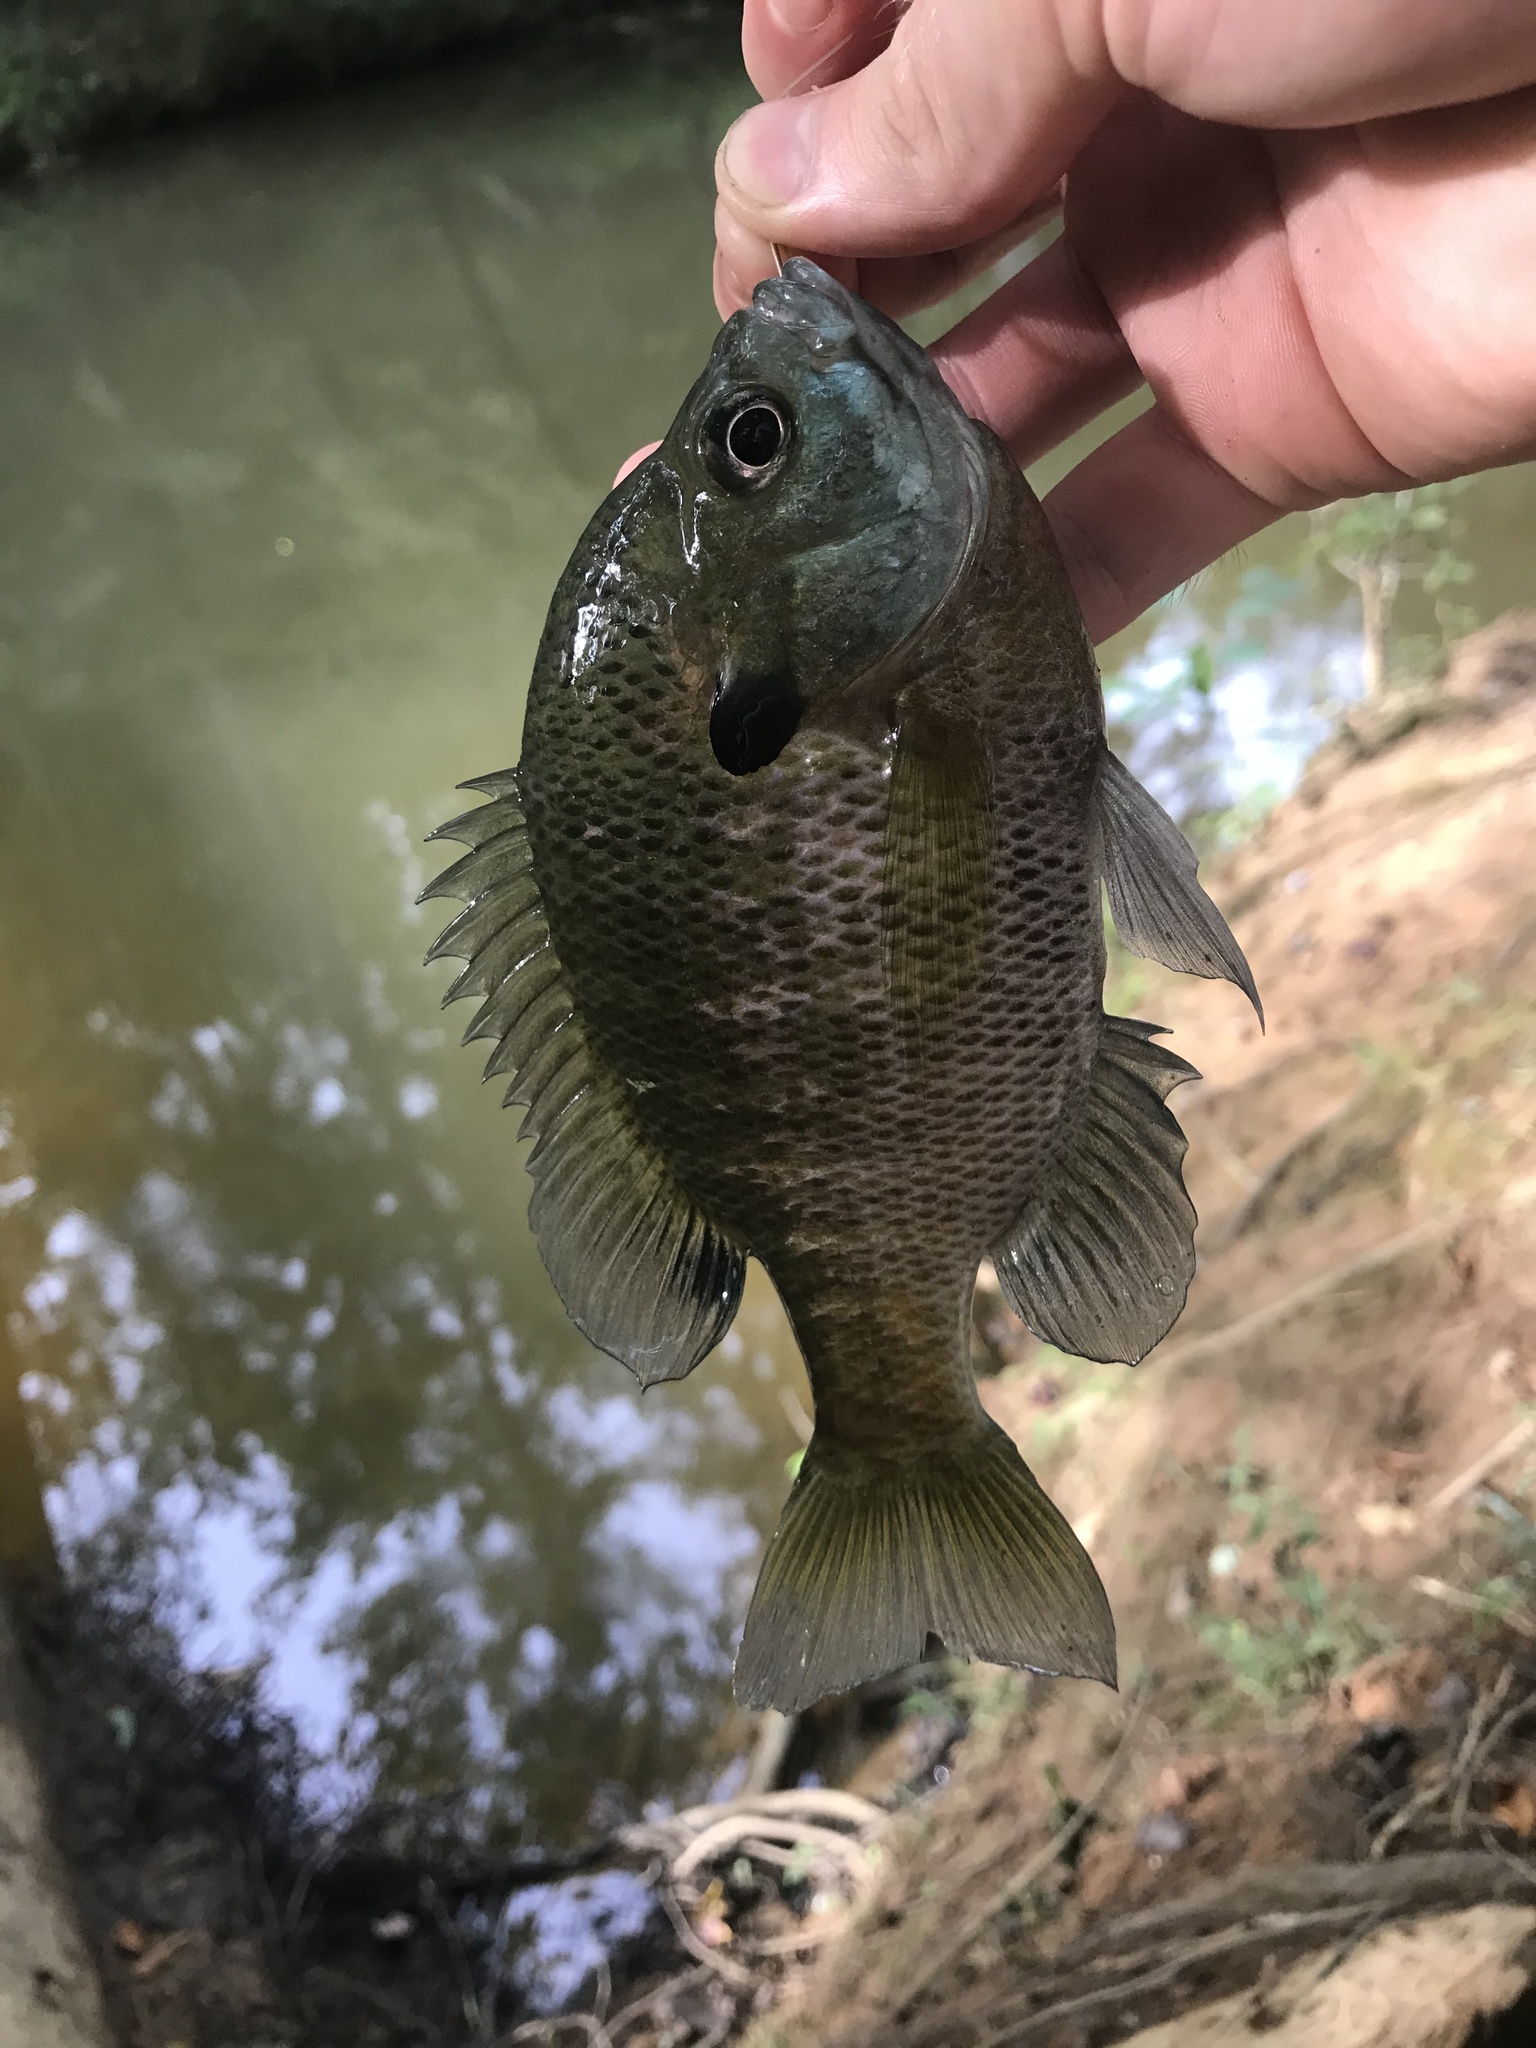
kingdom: Animalia
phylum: Chordata
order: Perciformes
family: Centrarchidae
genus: Lepomis
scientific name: Lepomis macrochirus
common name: Bluegill
